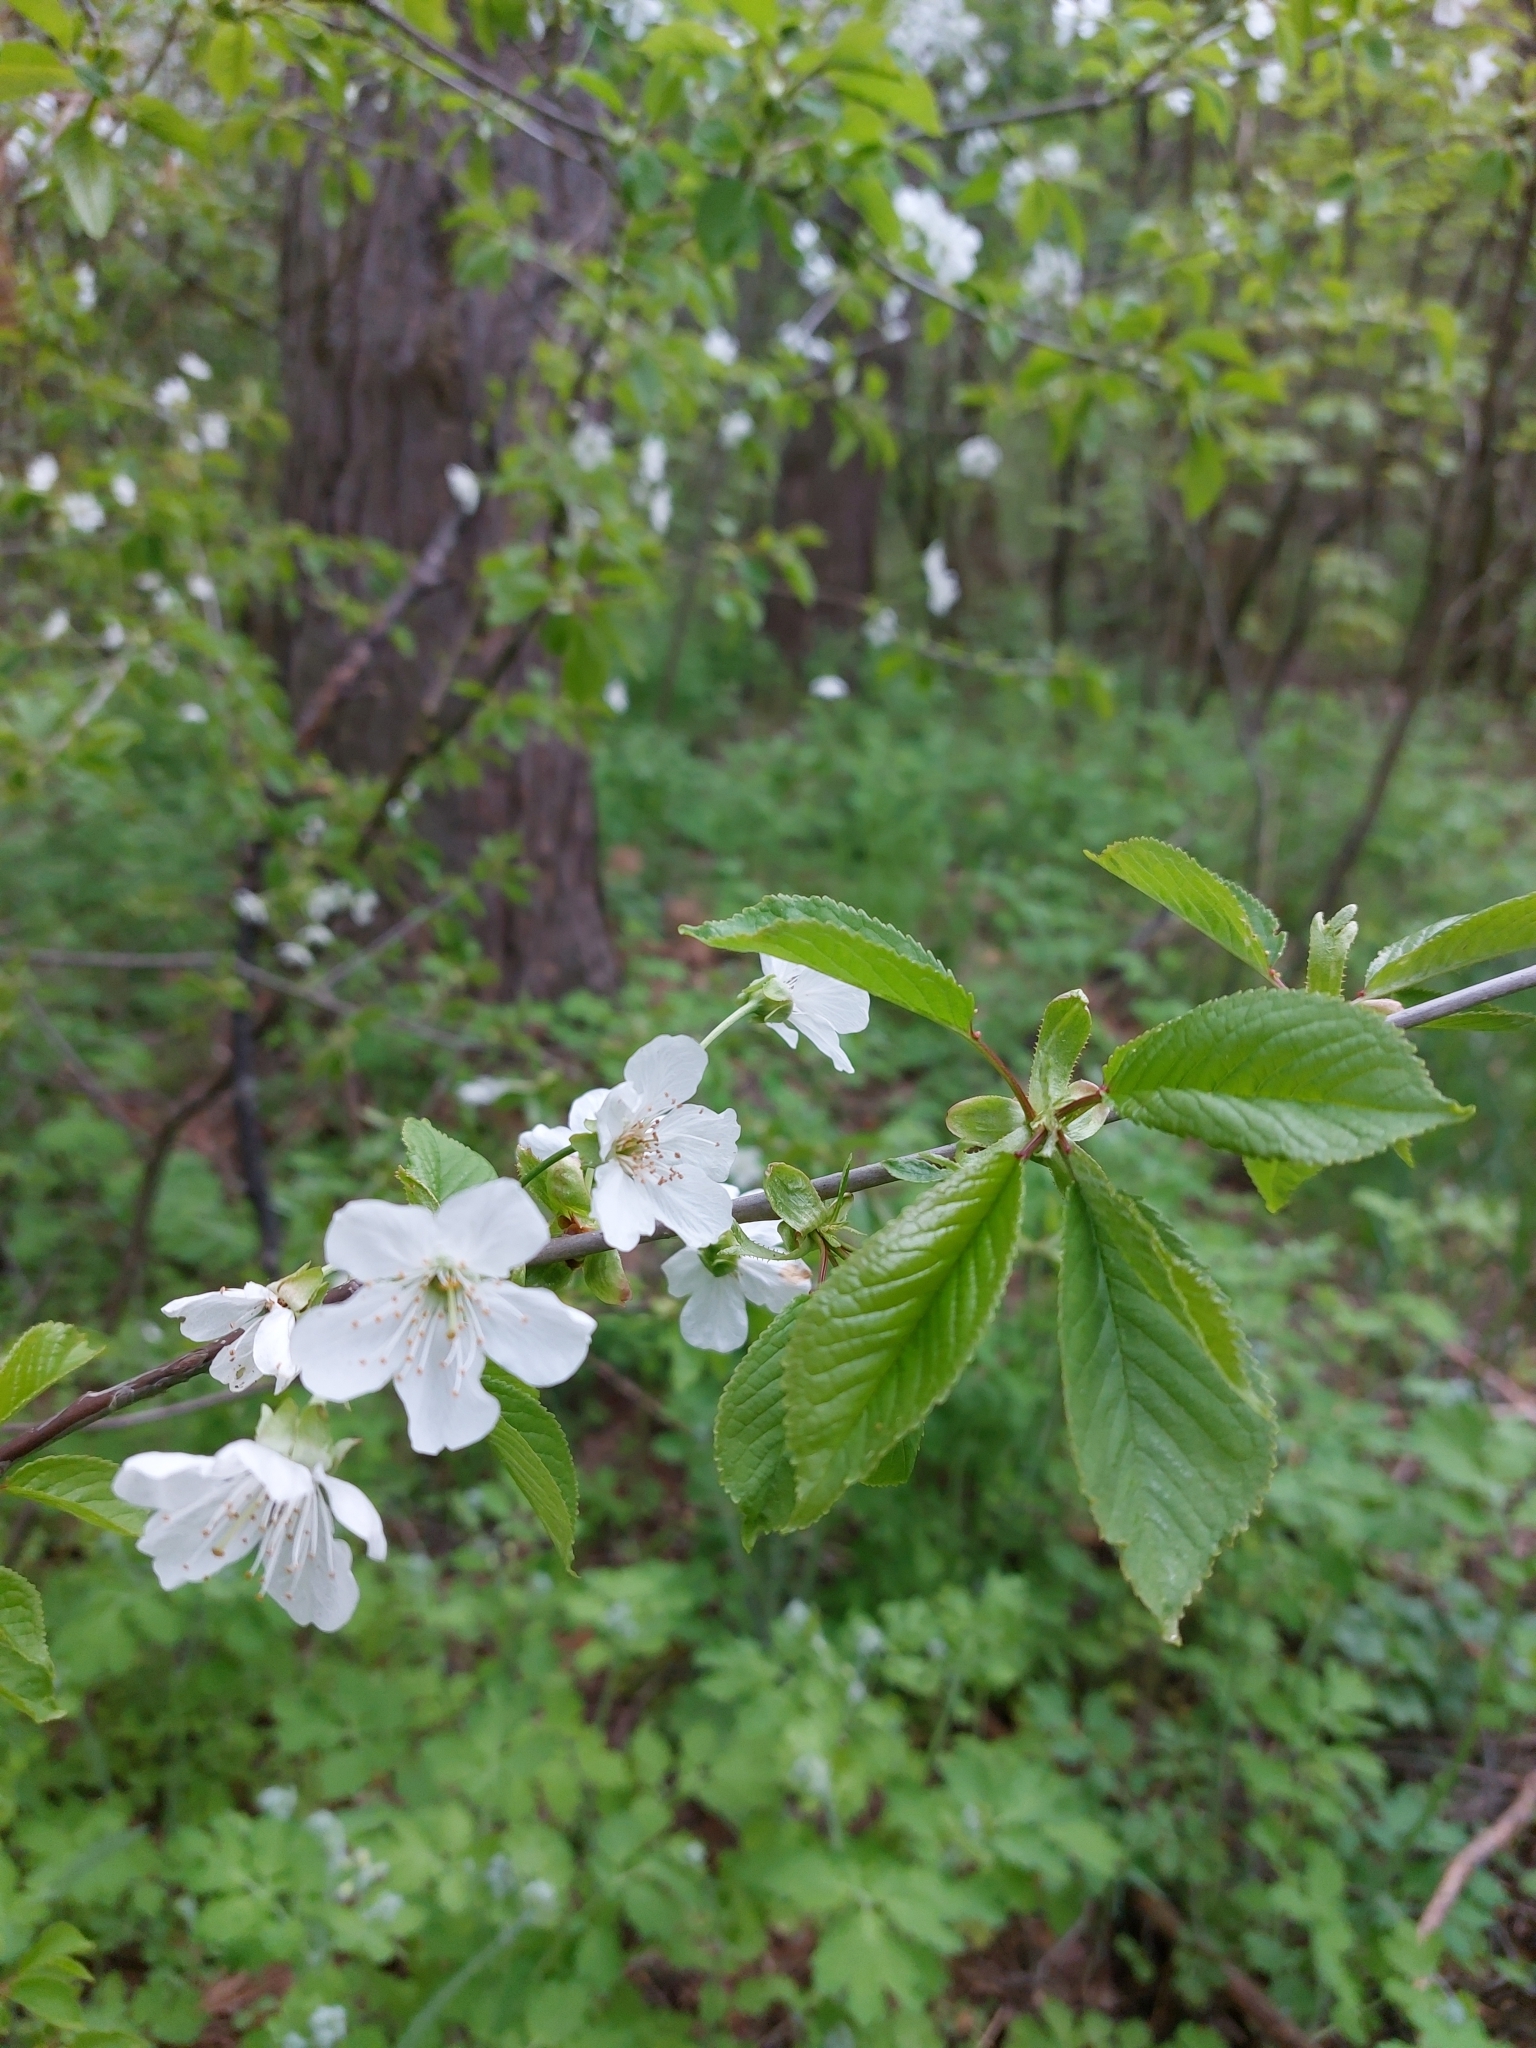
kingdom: Plantae
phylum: Tracheophyta
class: Magnoliopsida
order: Rosales
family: Rosaceae
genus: Prunus
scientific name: Prunus avium
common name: Sweet cherry
